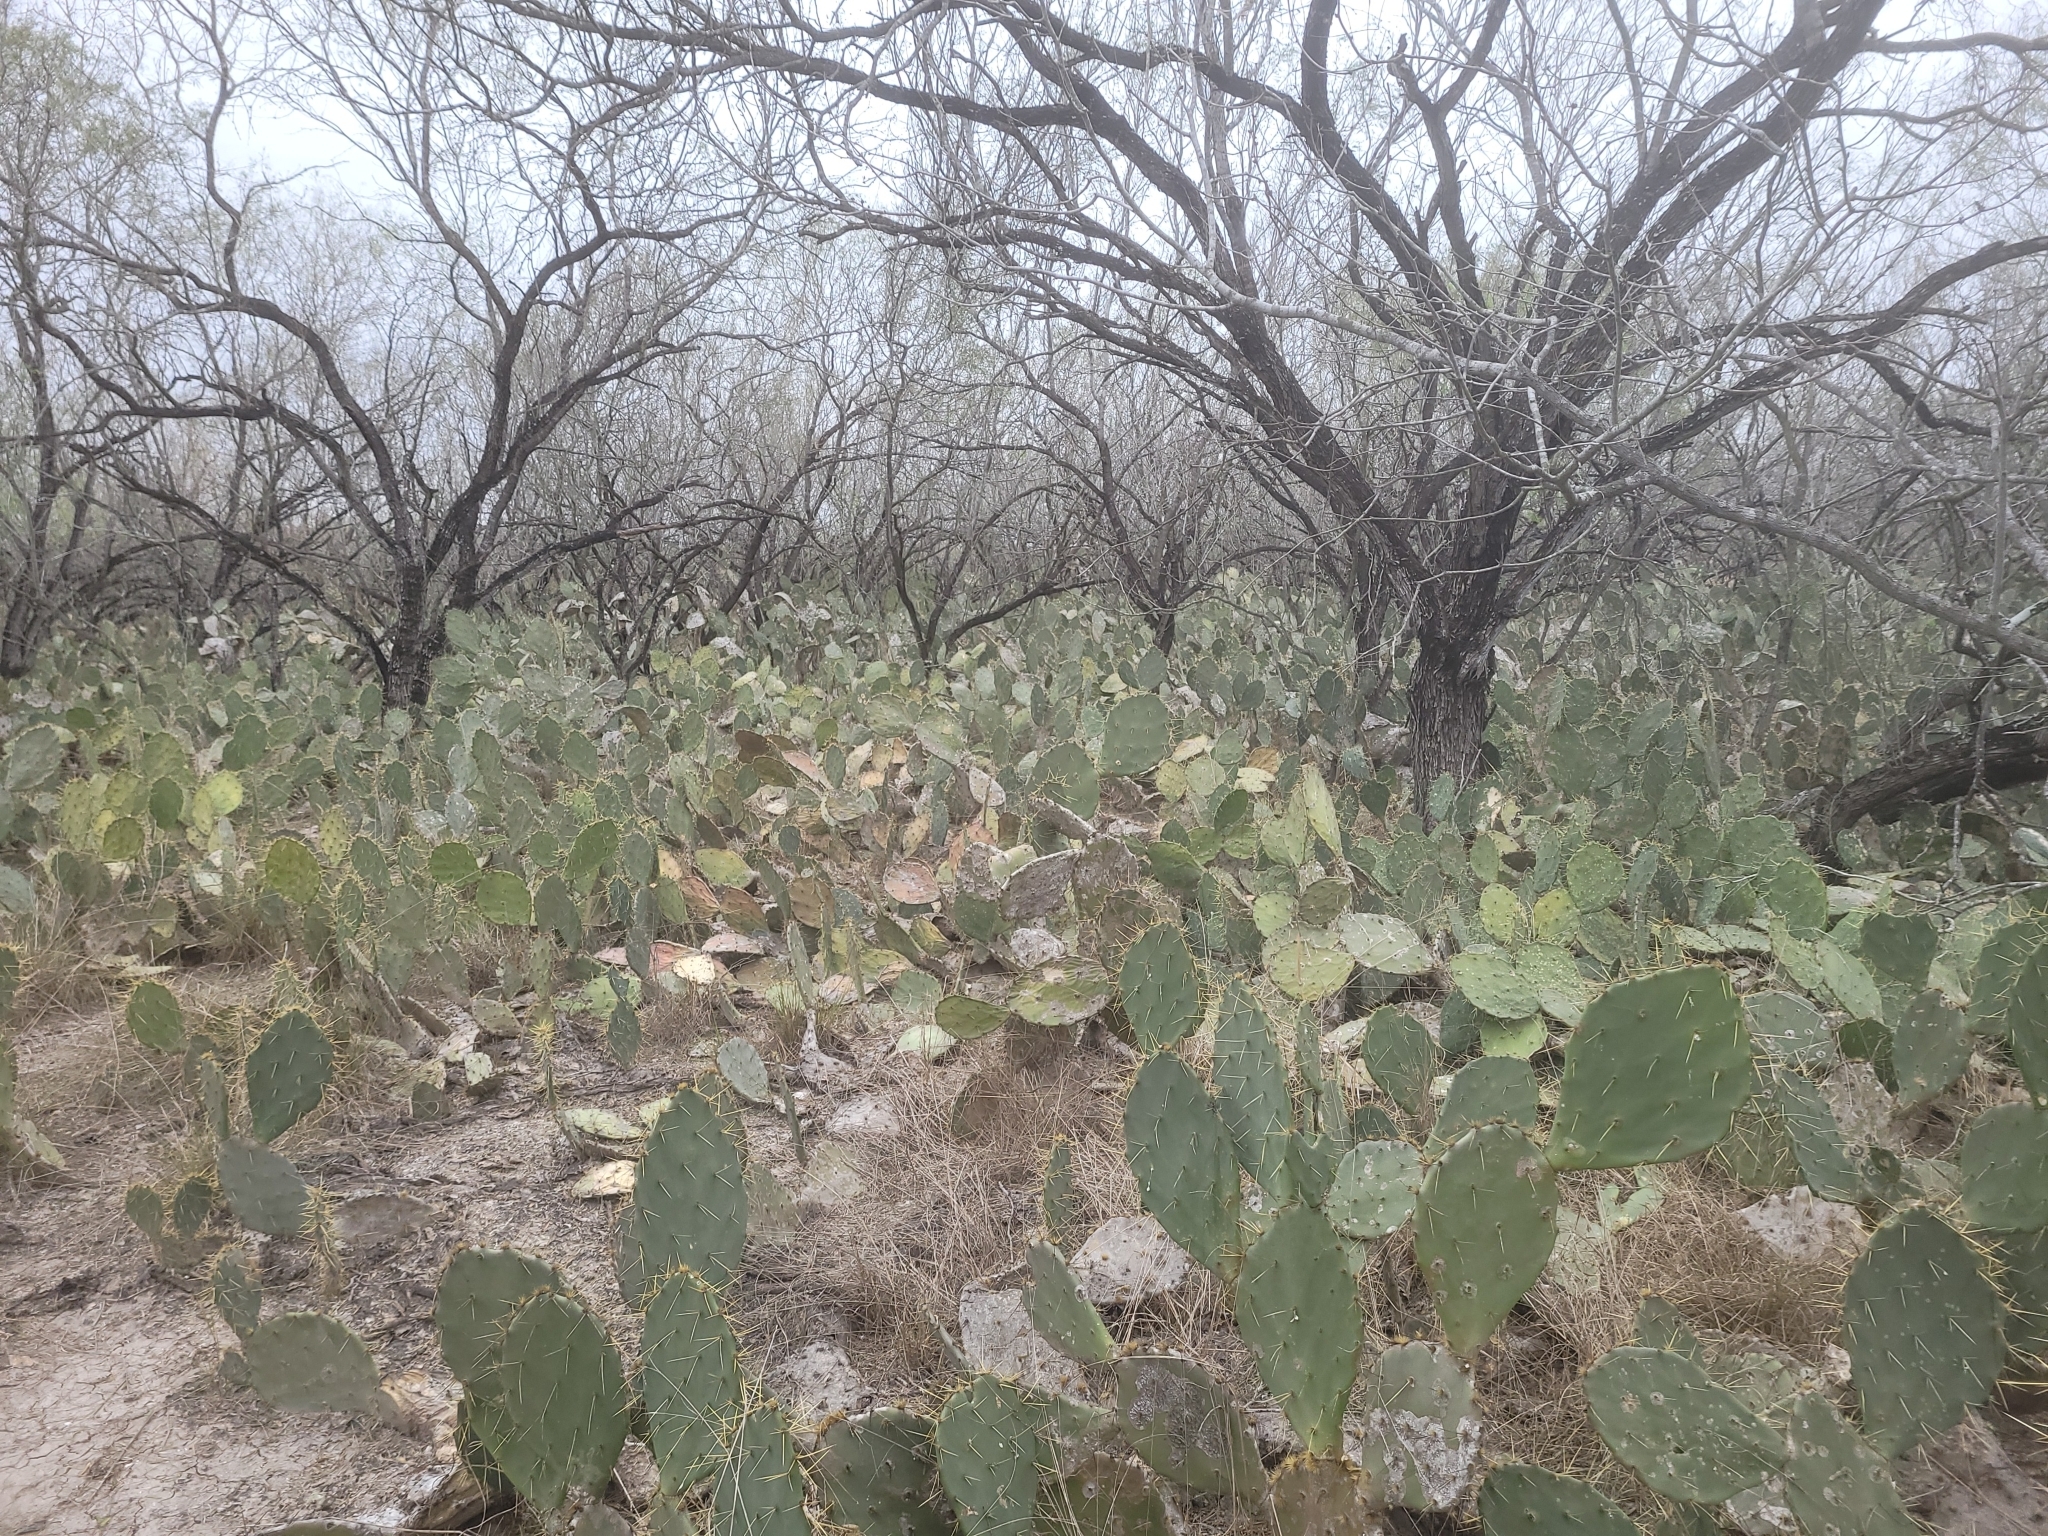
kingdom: Plantae
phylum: Tracheophyta
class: Magnoliopsida
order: Caryophyllales
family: Cactaceae
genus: Opuntia
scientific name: Opuntia engelmannii
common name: Cactus-apple
